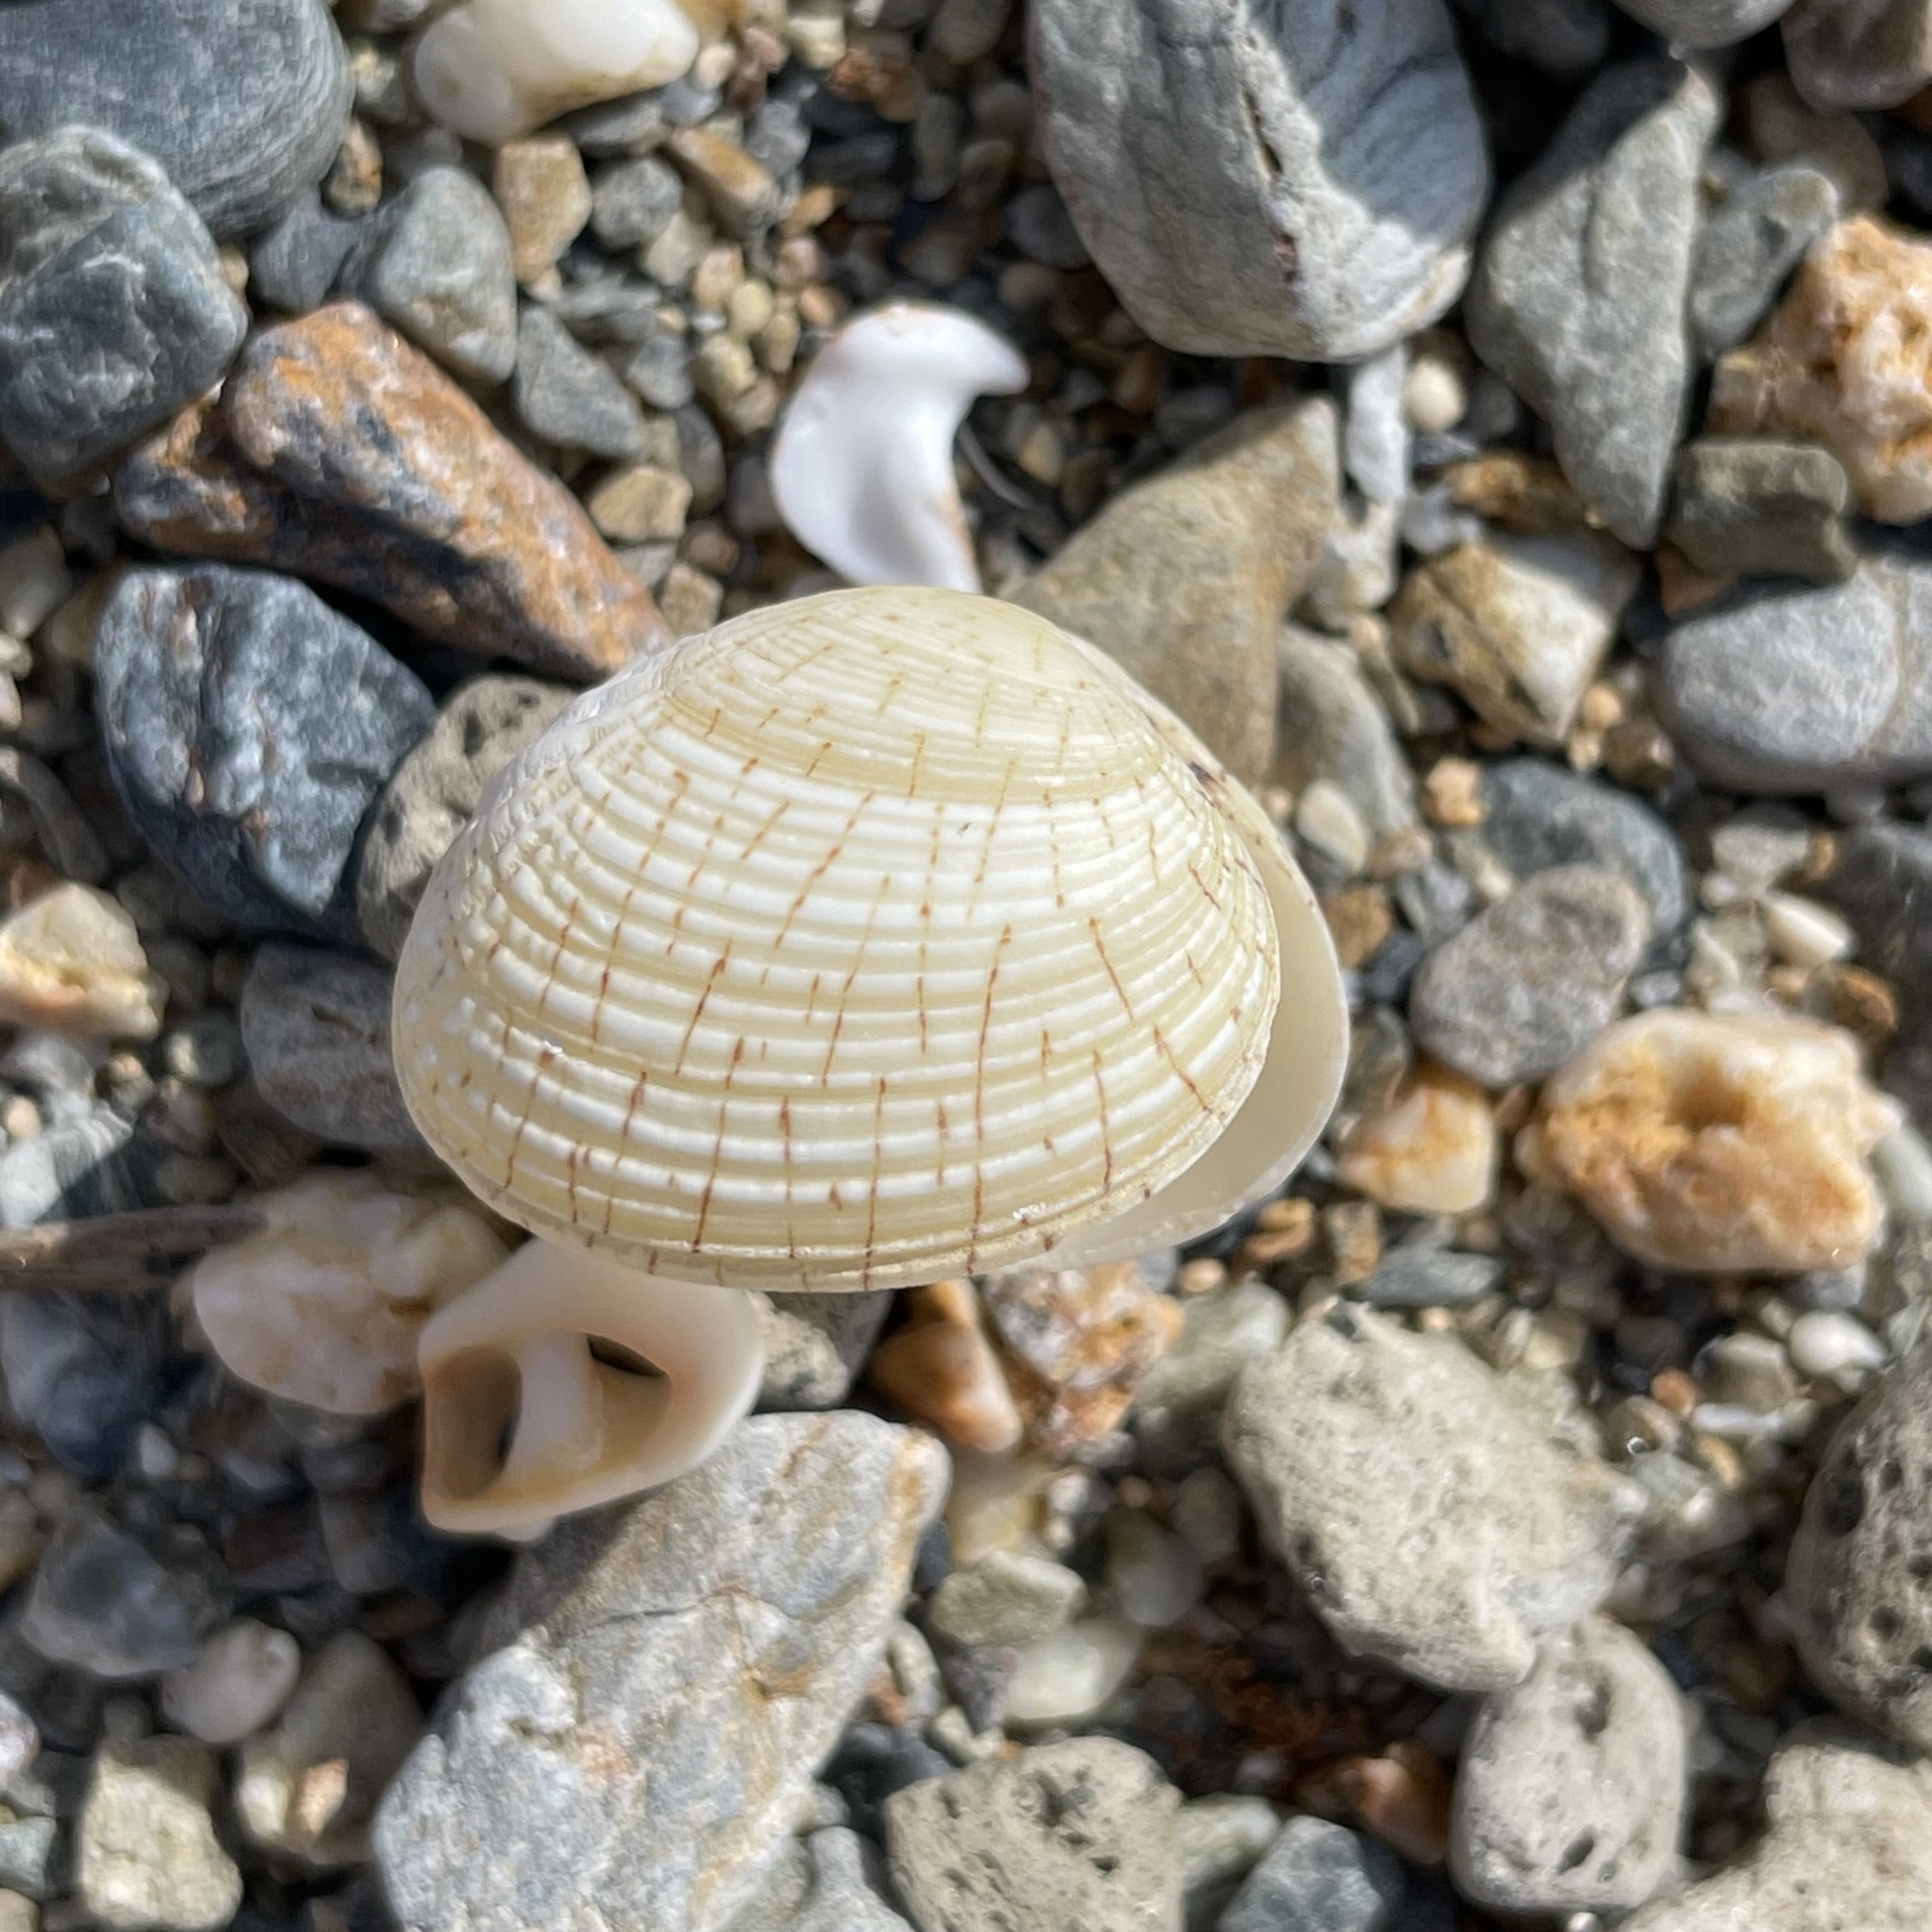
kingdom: Animalia
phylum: Mollusca
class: Bivalvia
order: Venerida
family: Veneridae
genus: Gafrarium
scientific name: Gafrarium dispar
